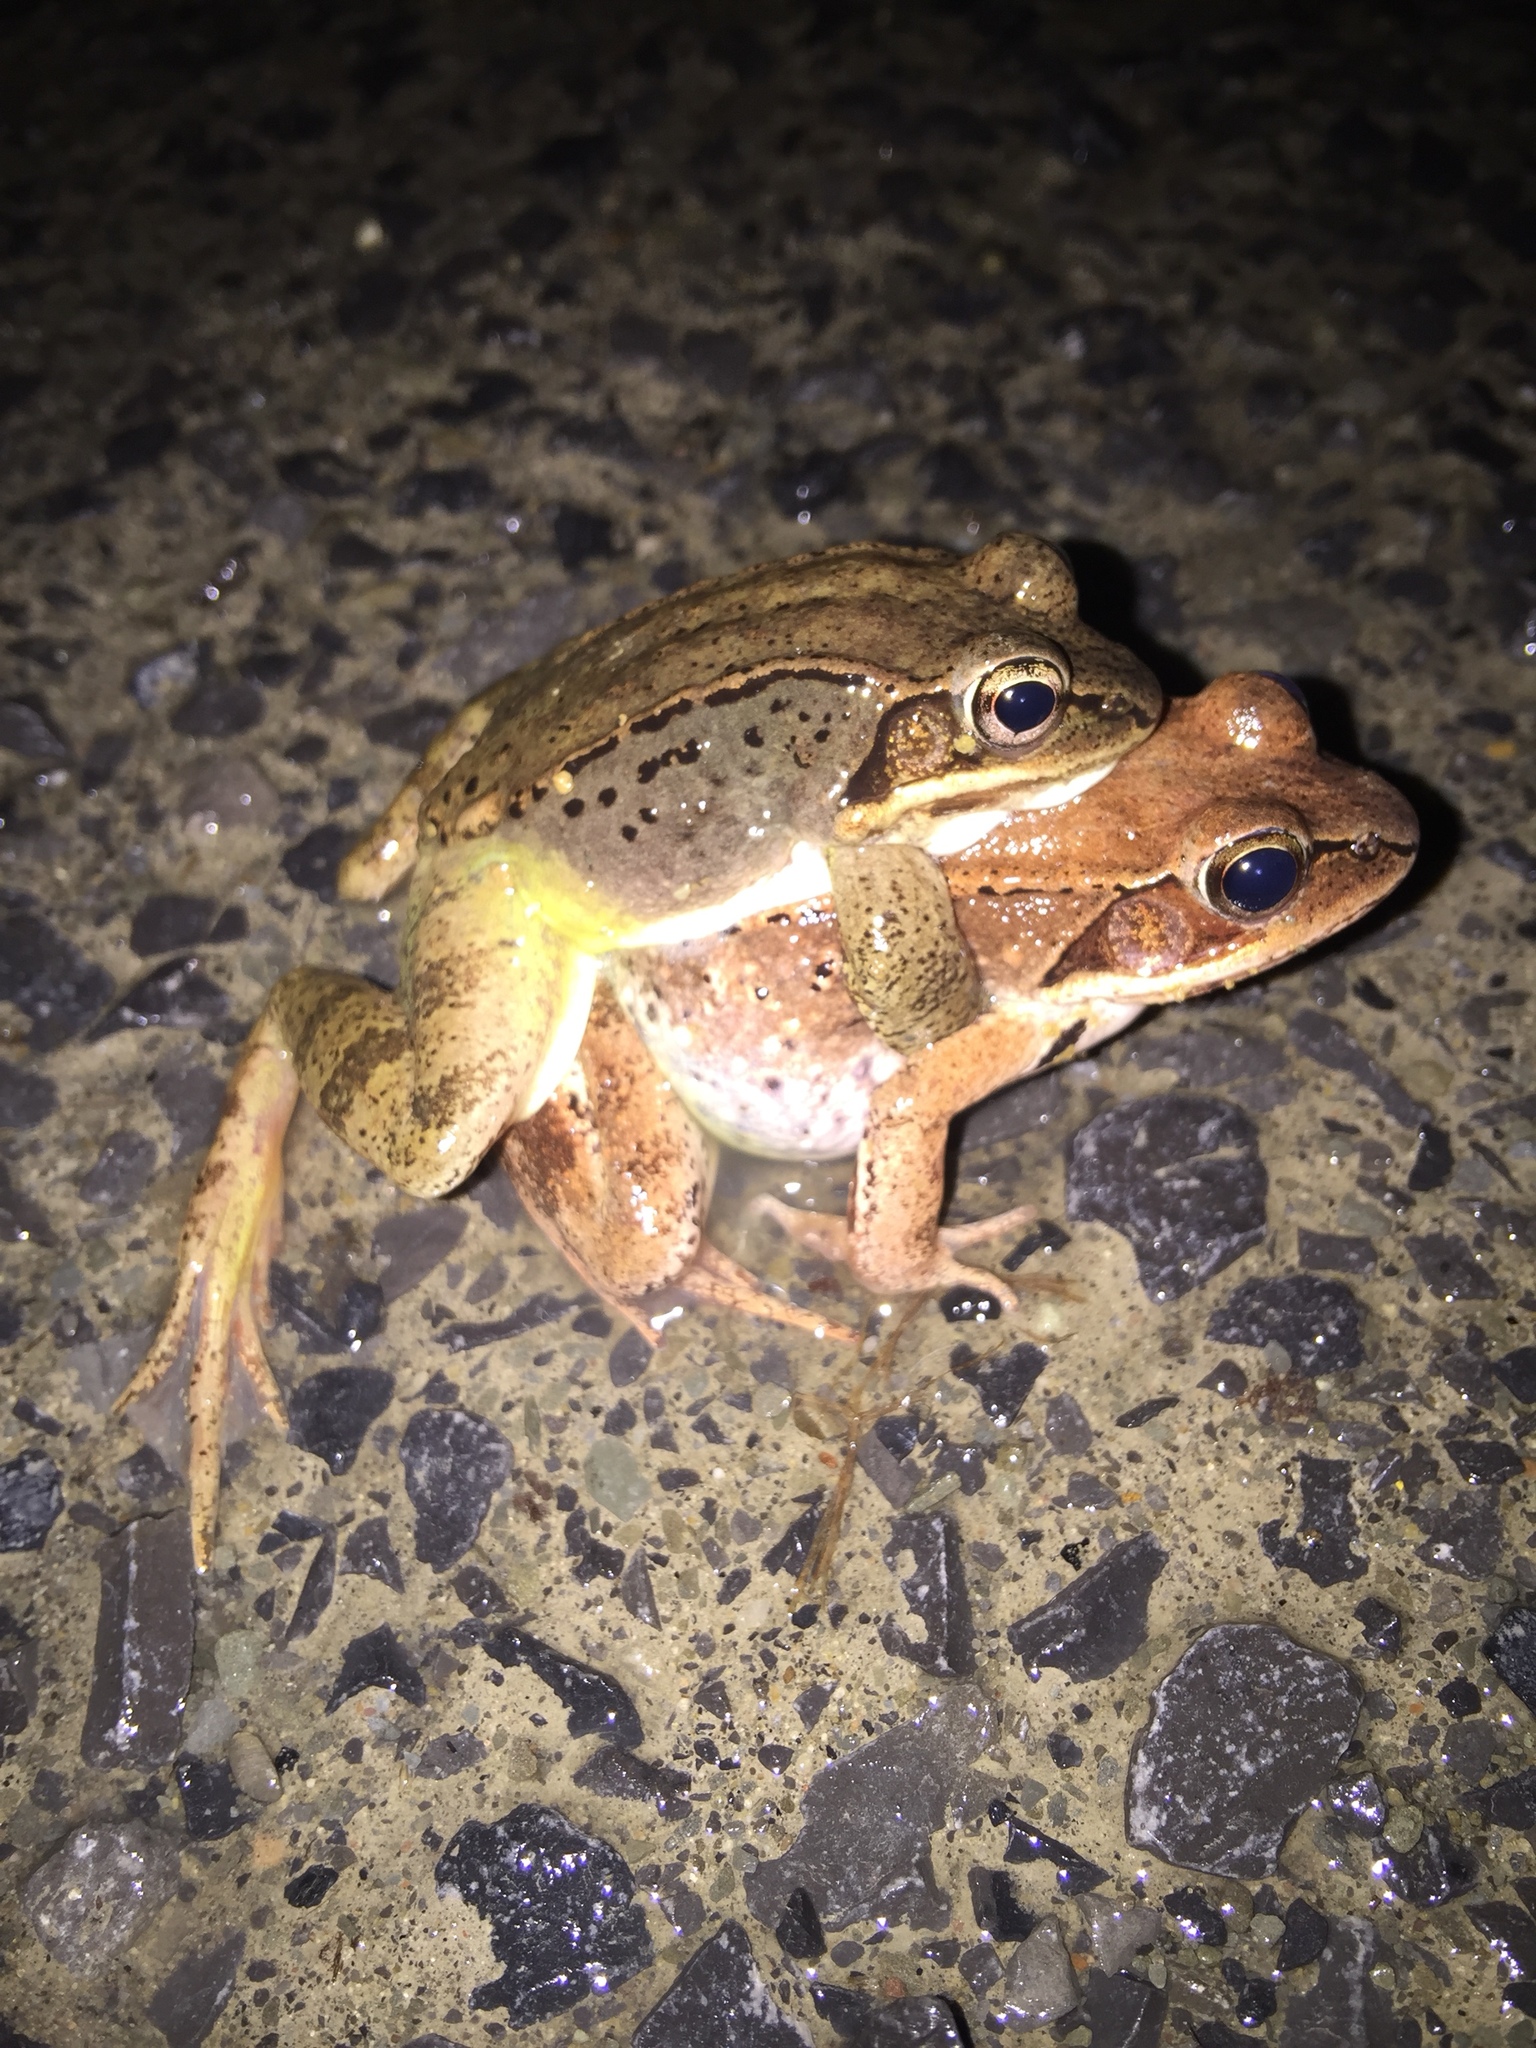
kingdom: Animalia
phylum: Chordata
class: Amphibia
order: Anura
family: Ranidae
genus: Lithobates
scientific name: Lithobates sylvaticus
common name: Wood frog
